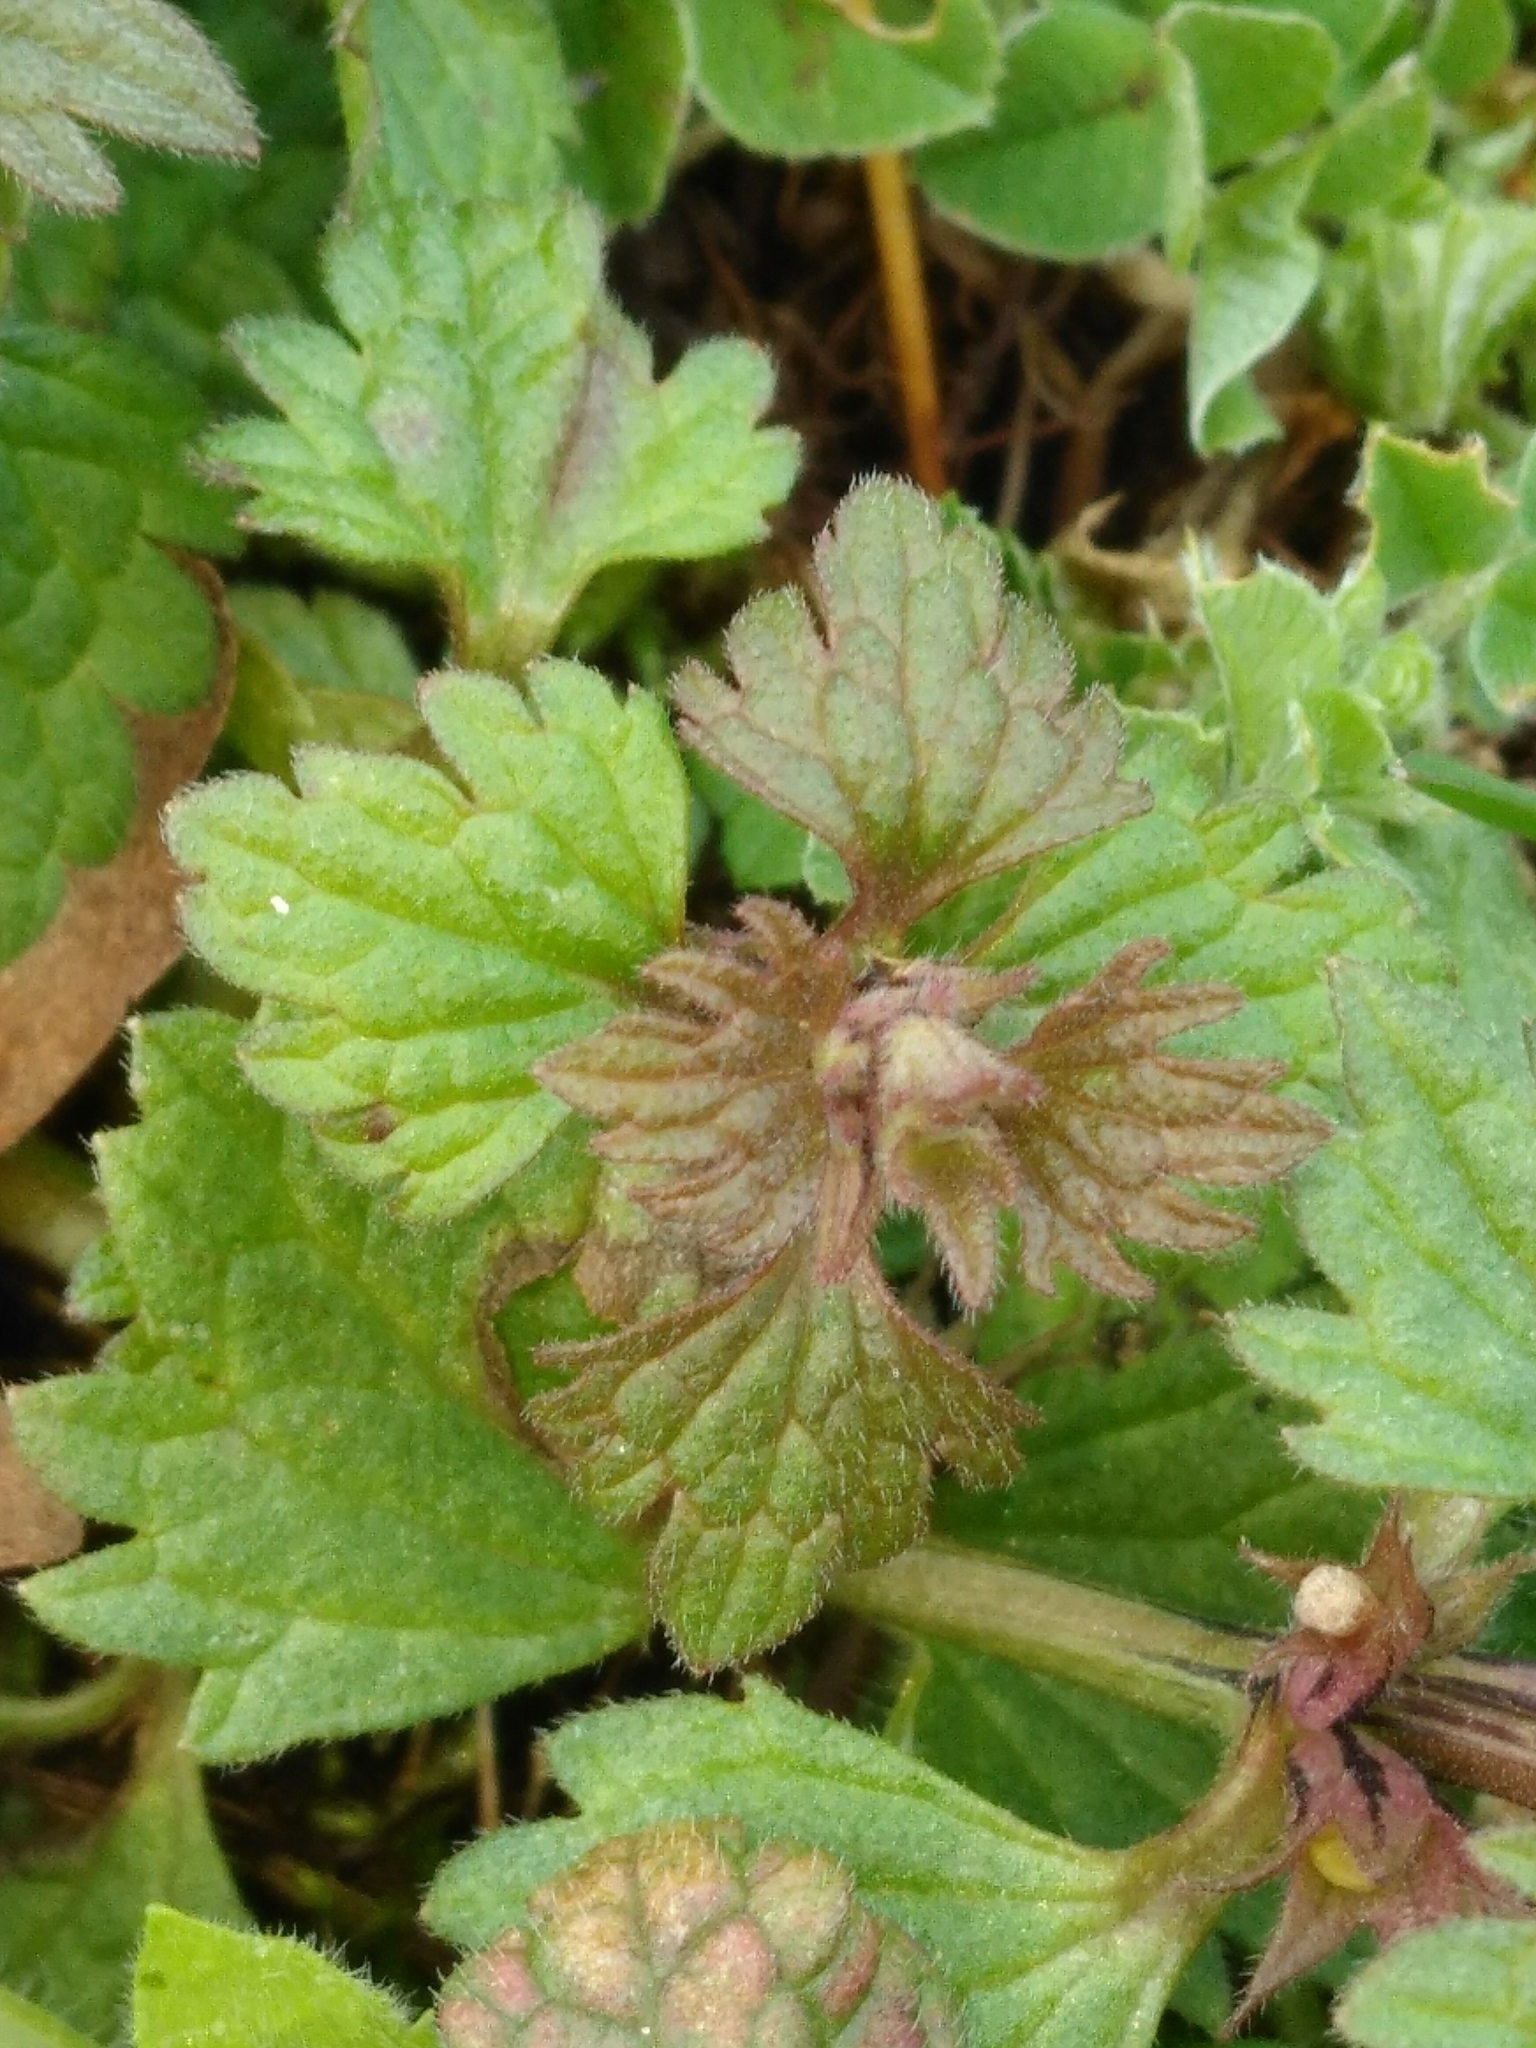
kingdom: Plantae
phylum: Tracheophyta
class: Magnoliopsida
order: Lamiales
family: Lamiaceae
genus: Lamium
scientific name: Lamium hybridum
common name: Cut-leaved dead-nettle
